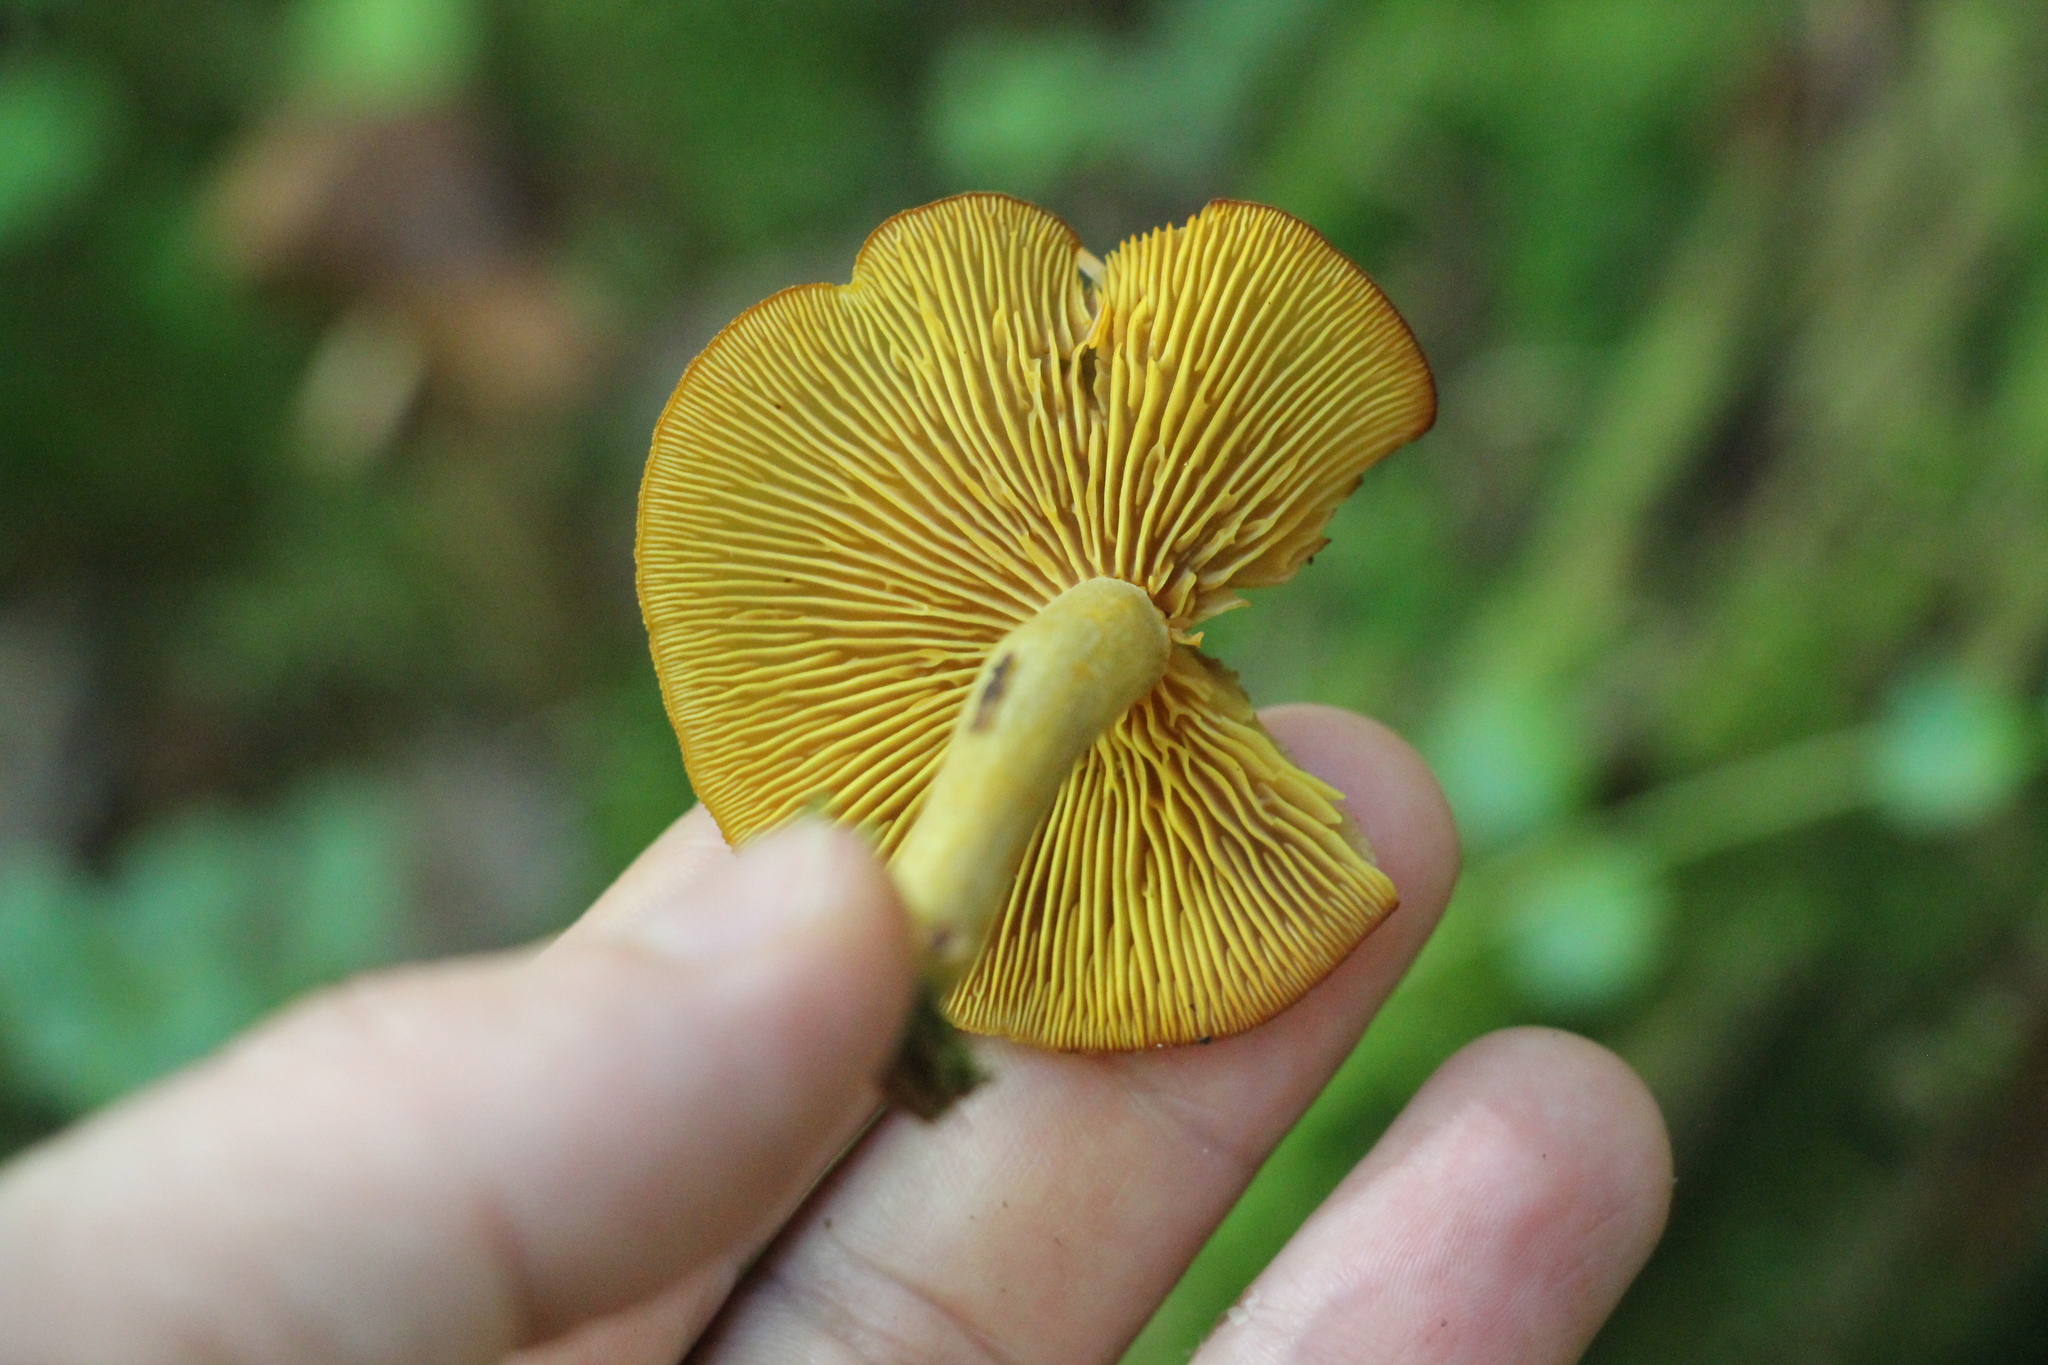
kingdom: Fungi
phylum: Basidiomycota
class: Agaricomycetes
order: Agaricales
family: Tricholomataceae
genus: Tricholomopsis
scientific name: Tricholomopsis decora
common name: Prunes and custard
